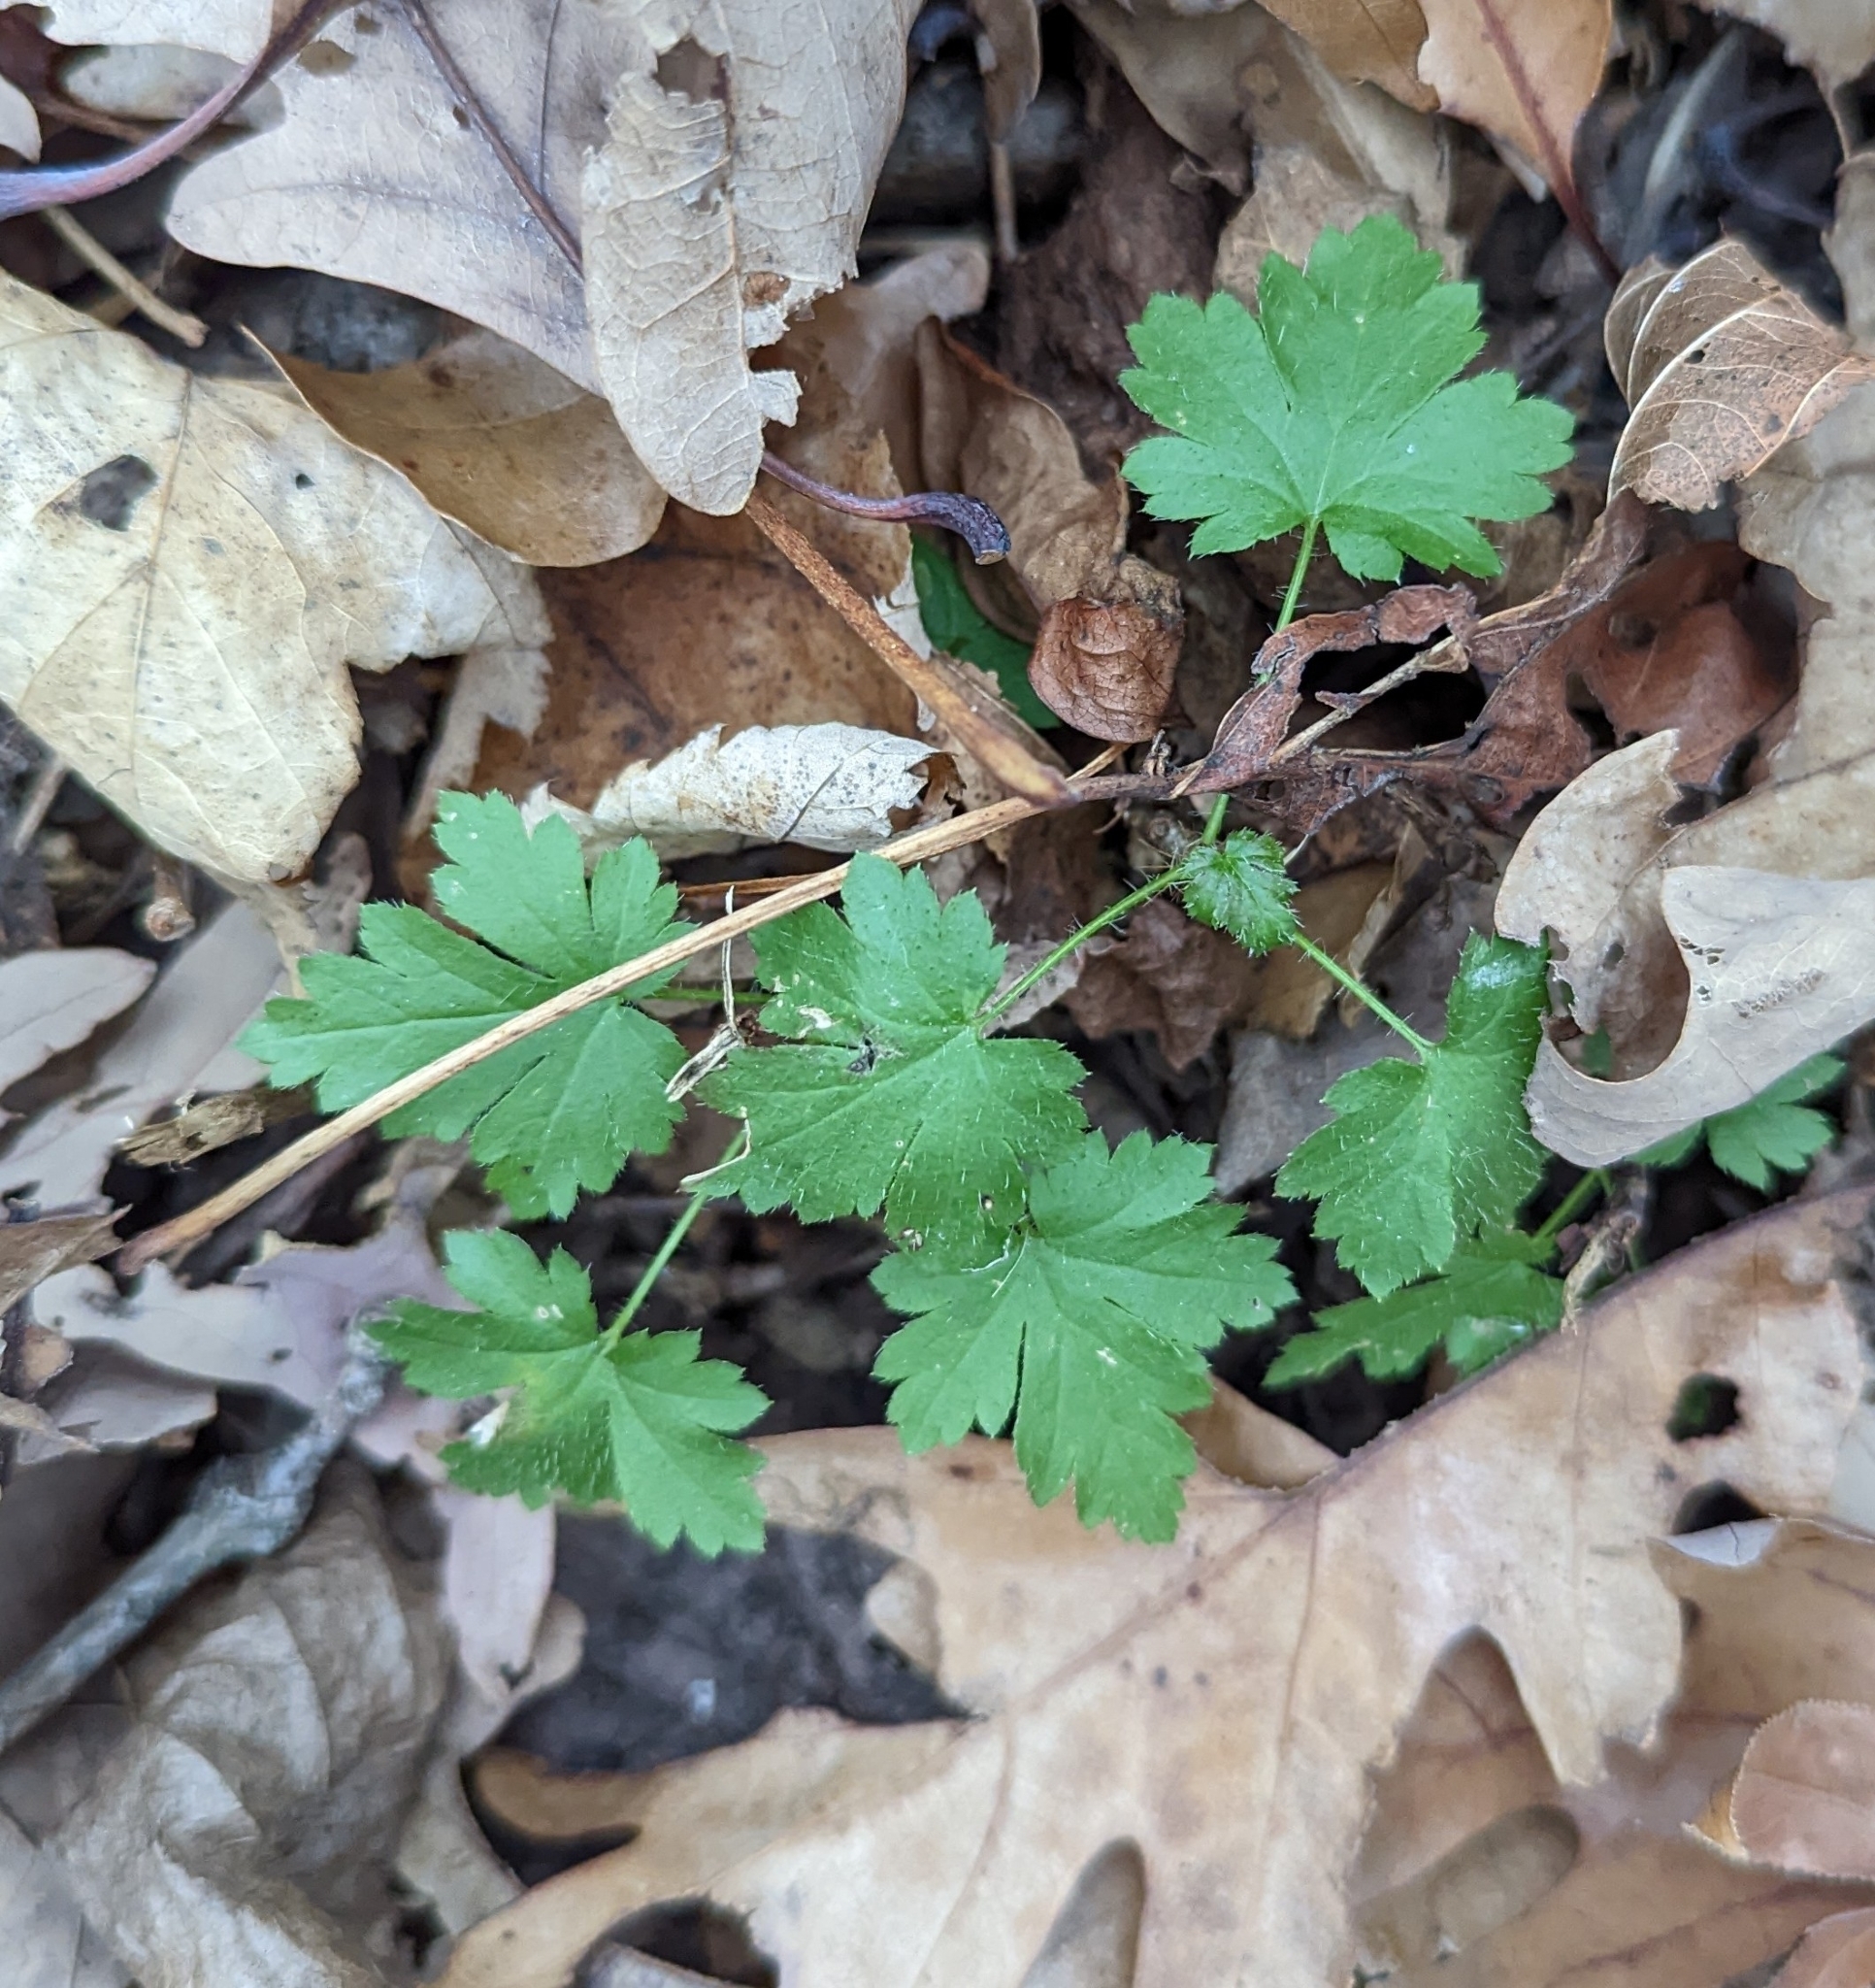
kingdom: Plantae
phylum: Tracheophyta
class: Magnoliopsida
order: Saxifragales
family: Grossulariaceae
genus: Ribes
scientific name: Ribes cynosbati
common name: American gooseberry
